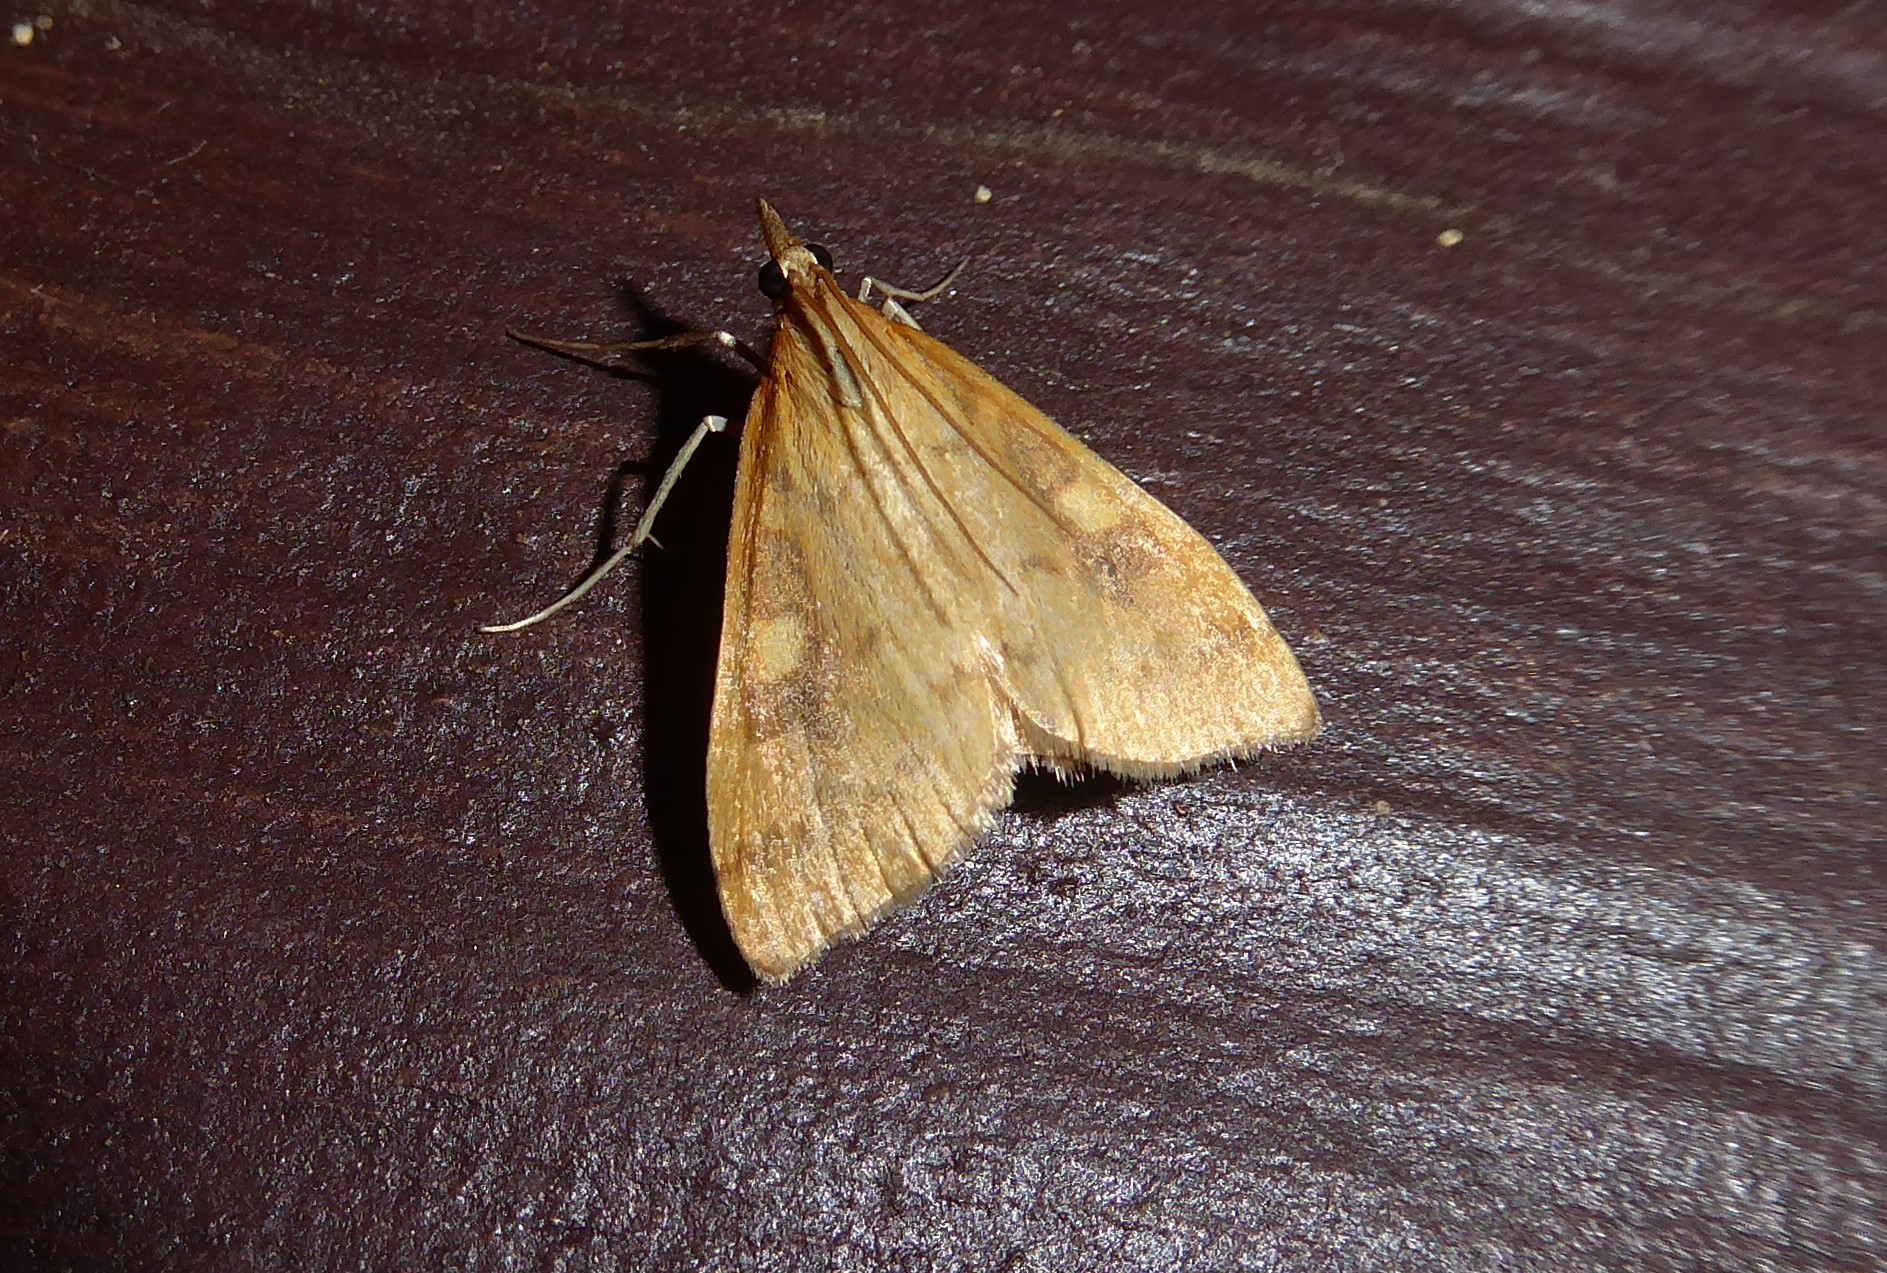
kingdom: Animalia
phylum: Arthropoda
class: Insecta
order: Lepidoptera
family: Crambidae
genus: Udea
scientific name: Udea Mnesictena flavidalis
